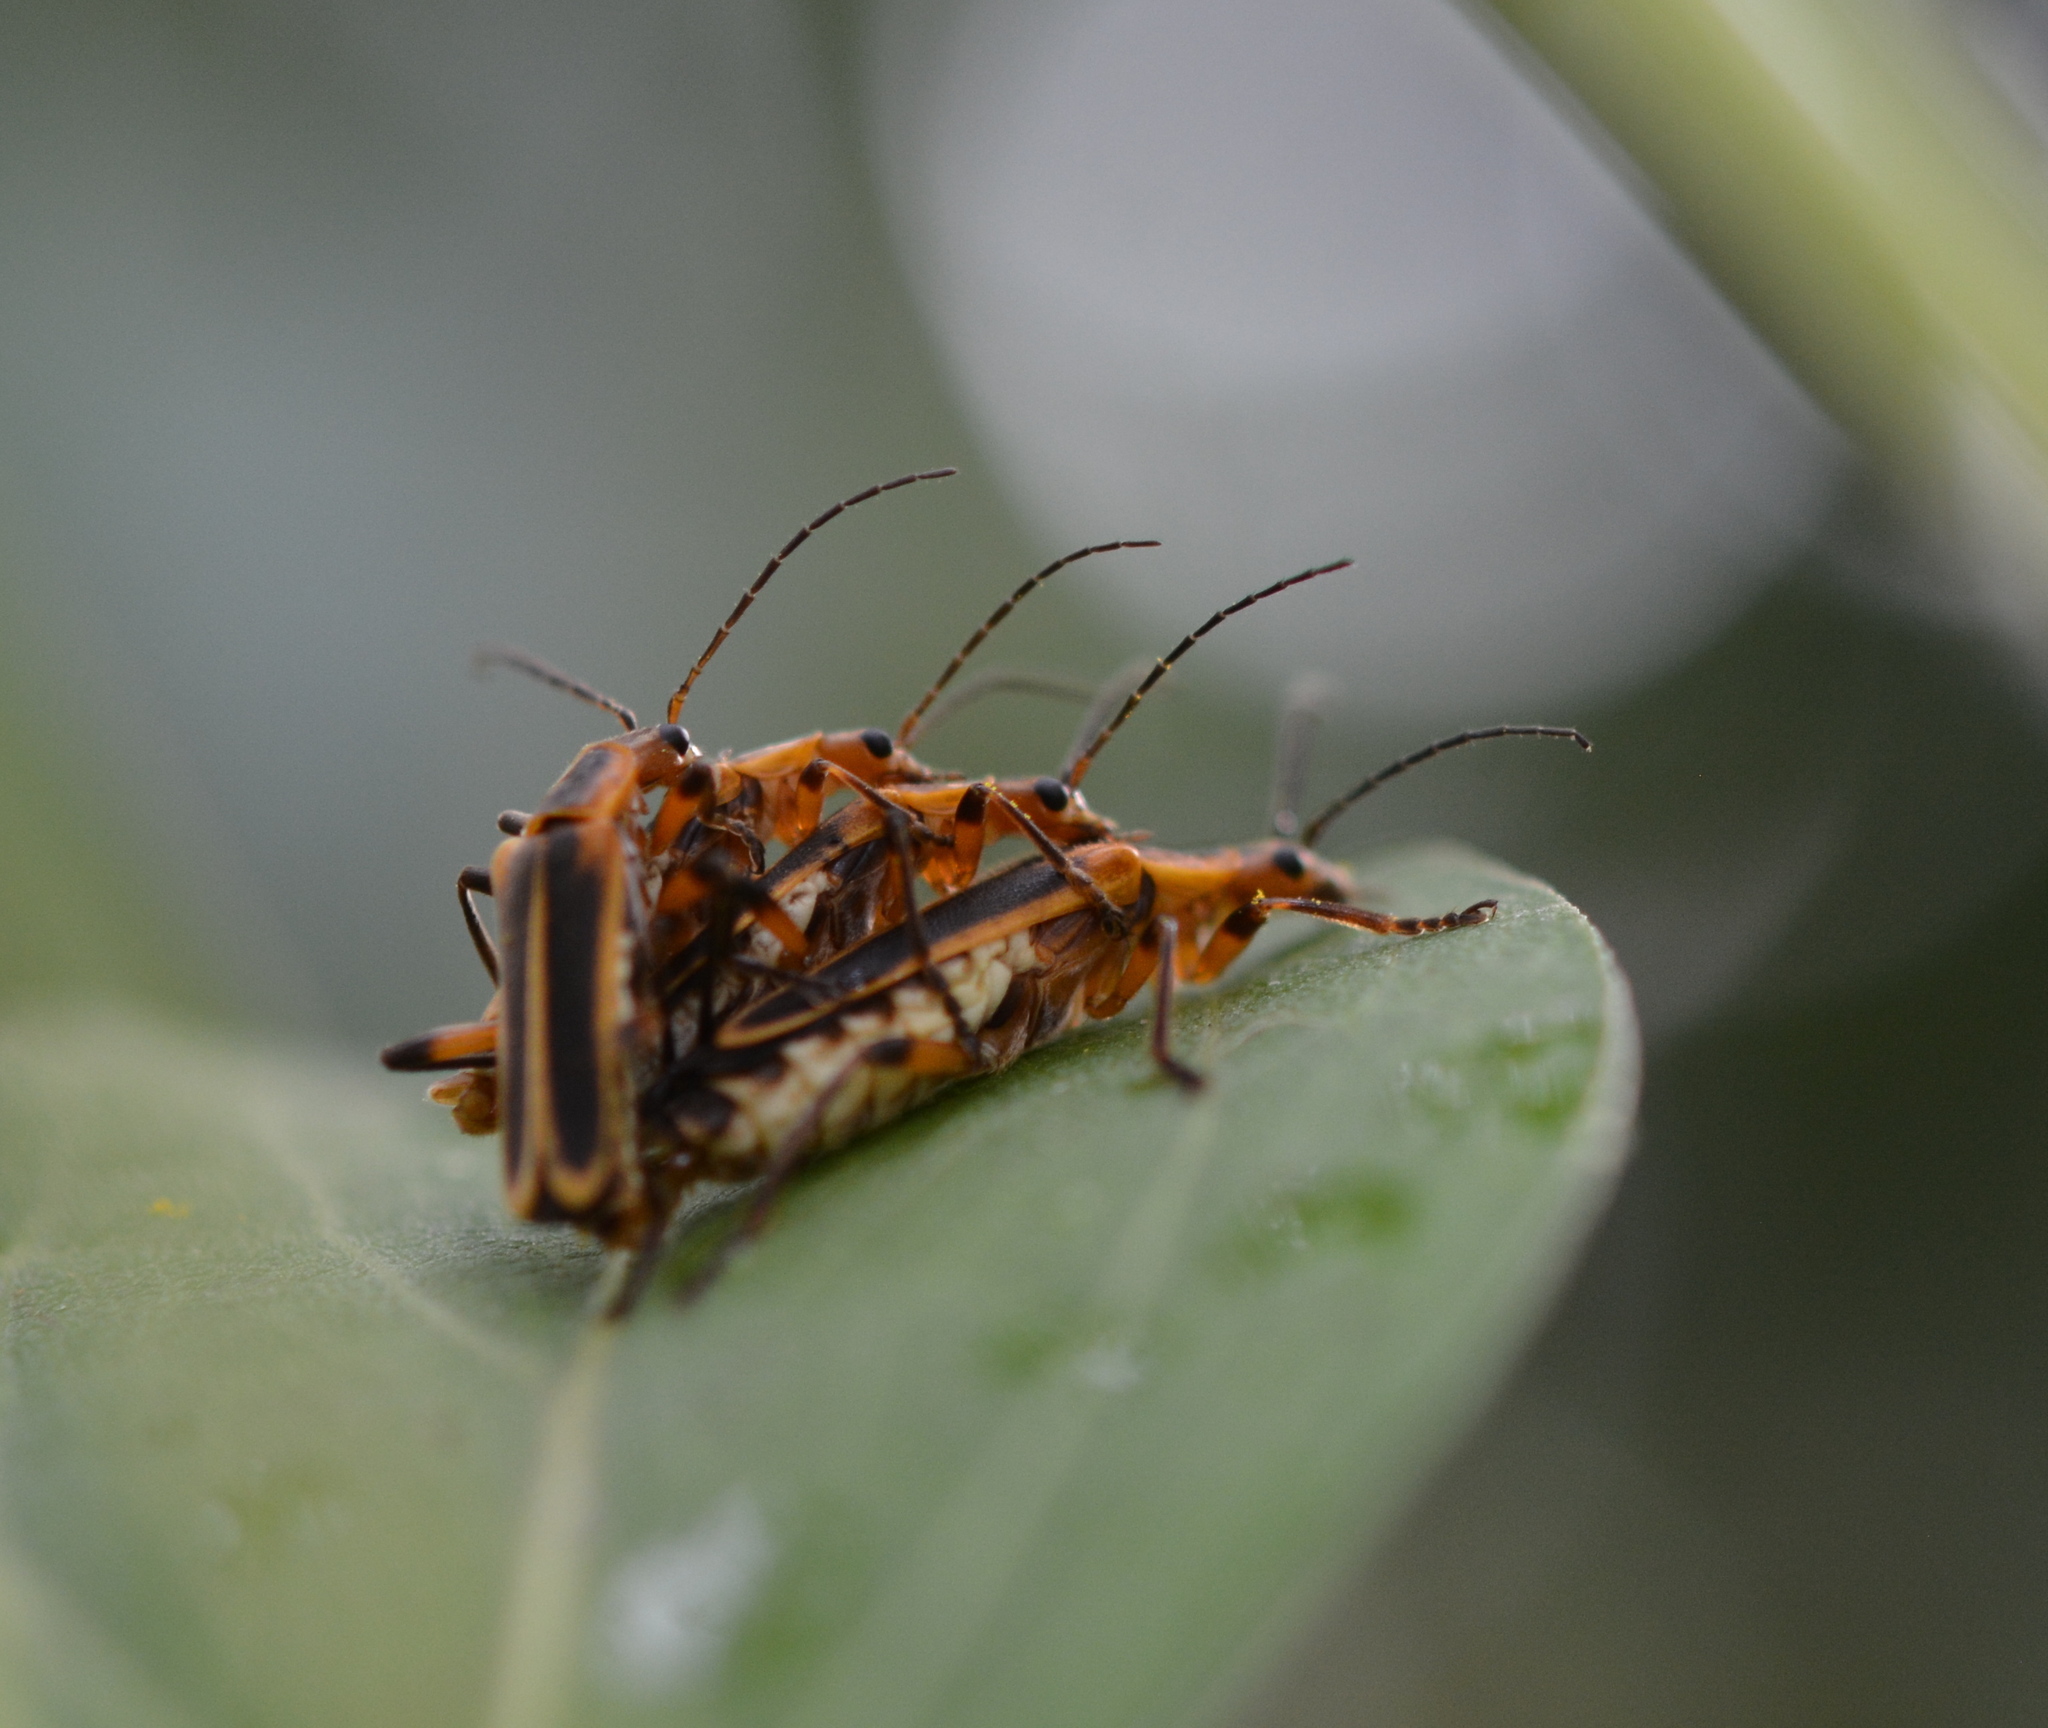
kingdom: Animalia
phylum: Arthropoda
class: Insecta
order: Coleoptera
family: Cantharidae
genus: Chauliognathus
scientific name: Chauliognathus marginatus
